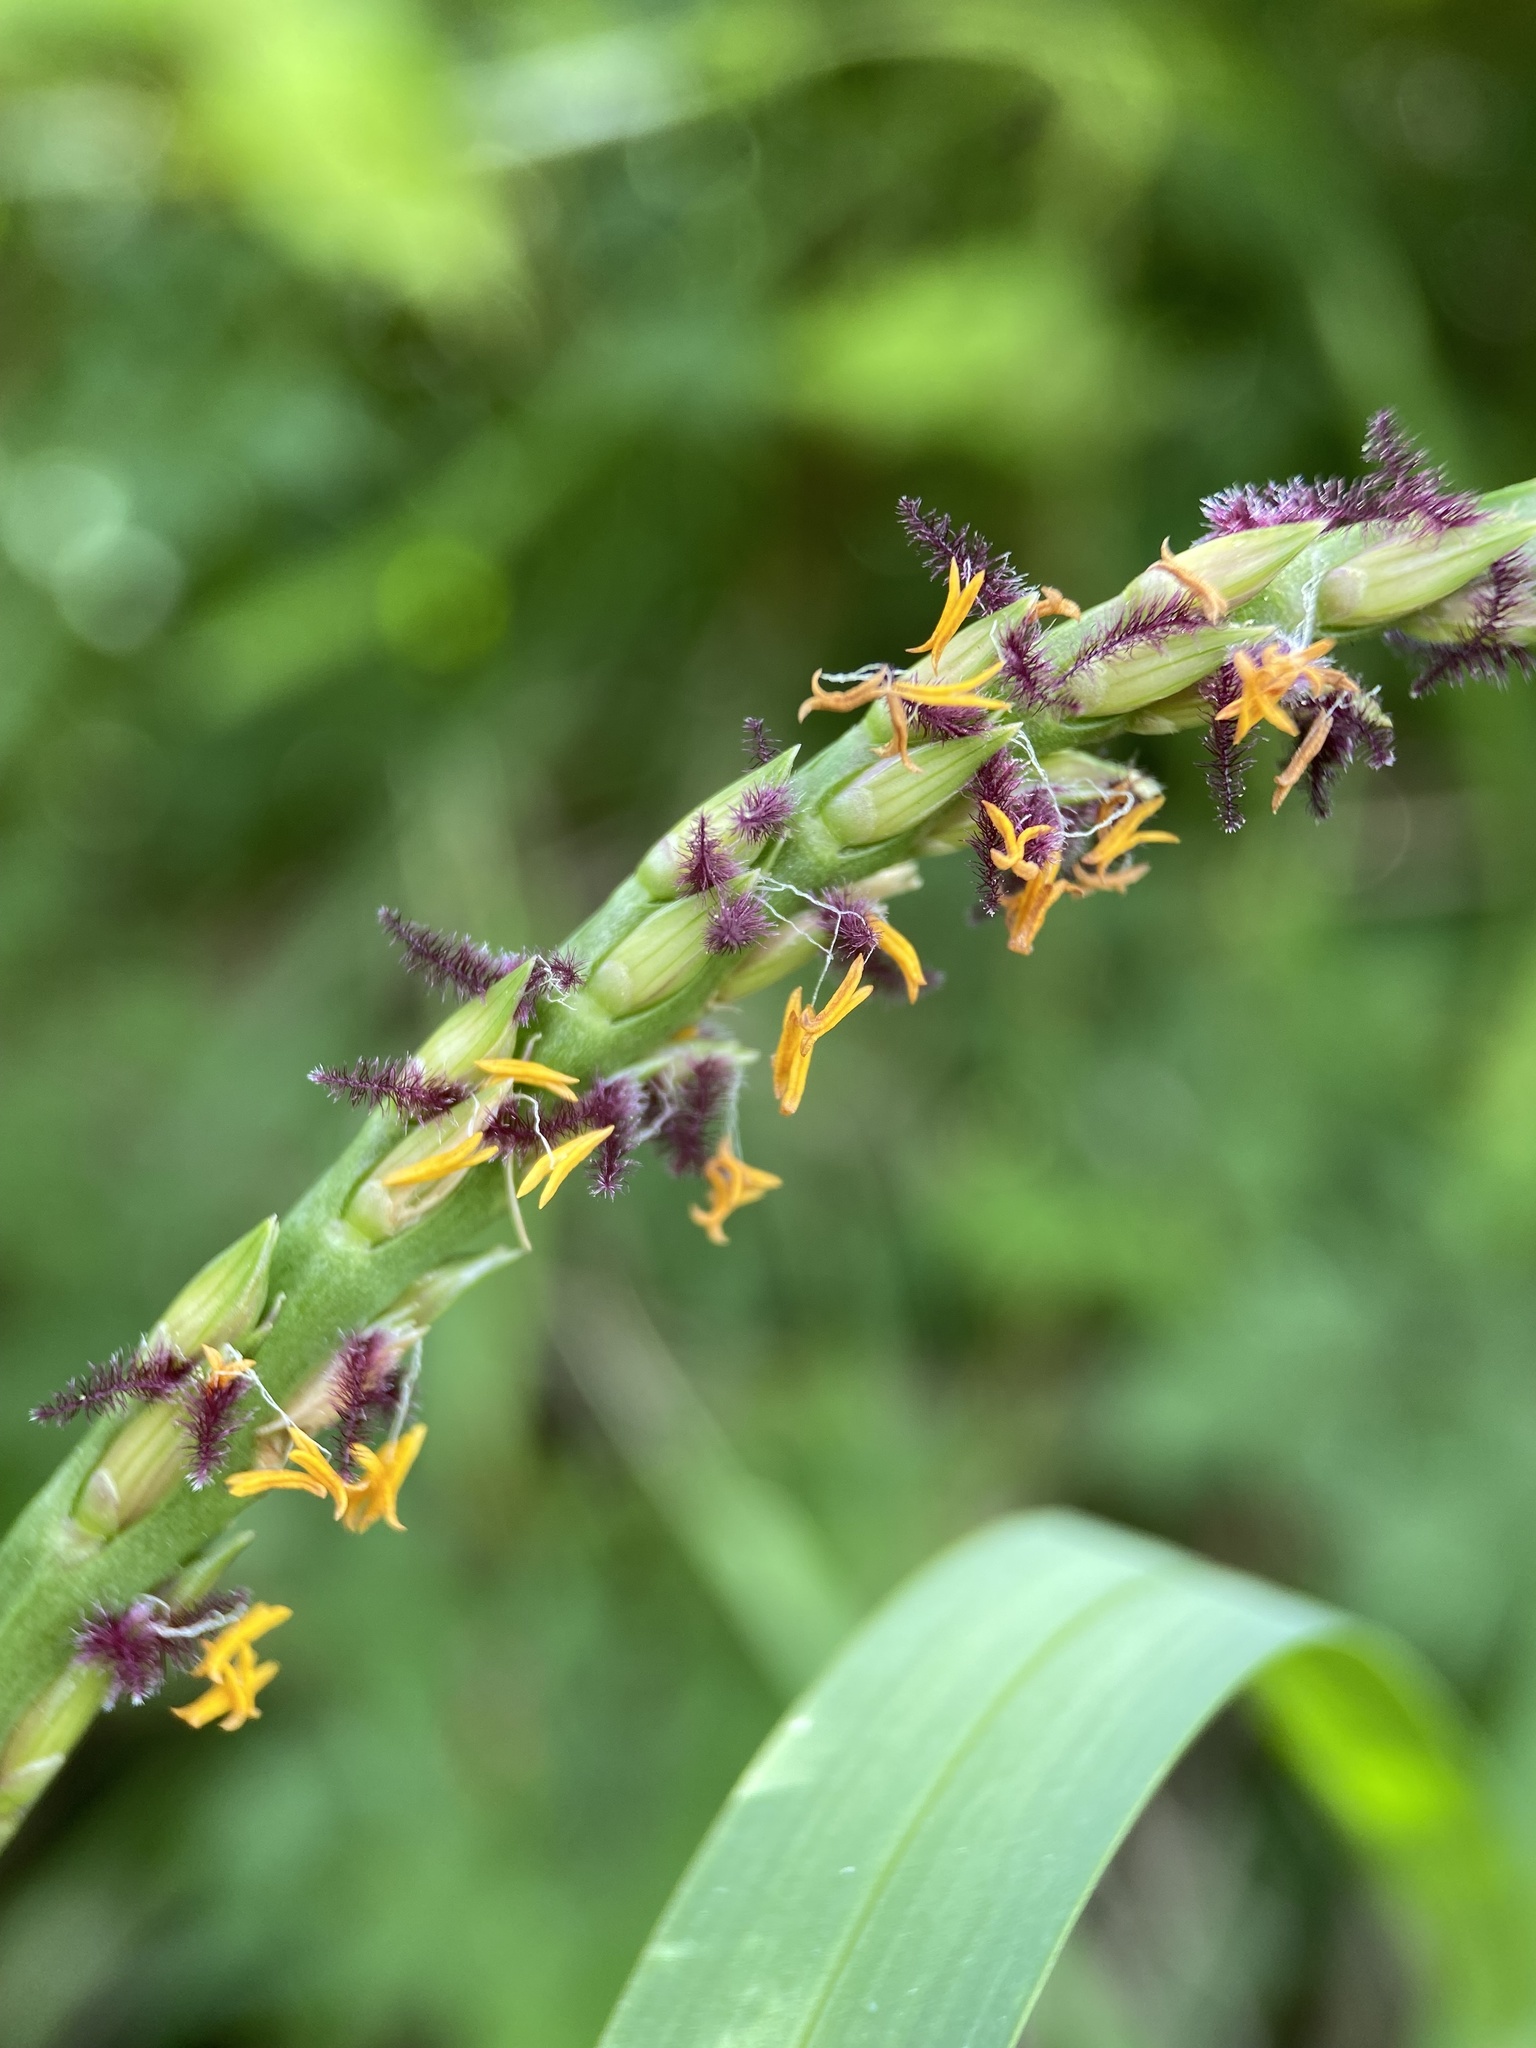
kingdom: Plantae
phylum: Tracheophyta
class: Liliopsida
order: Poales
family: Poaceae
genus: Stenotaphrum
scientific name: Stenotaphrum secundatum
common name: St. augustine grass
